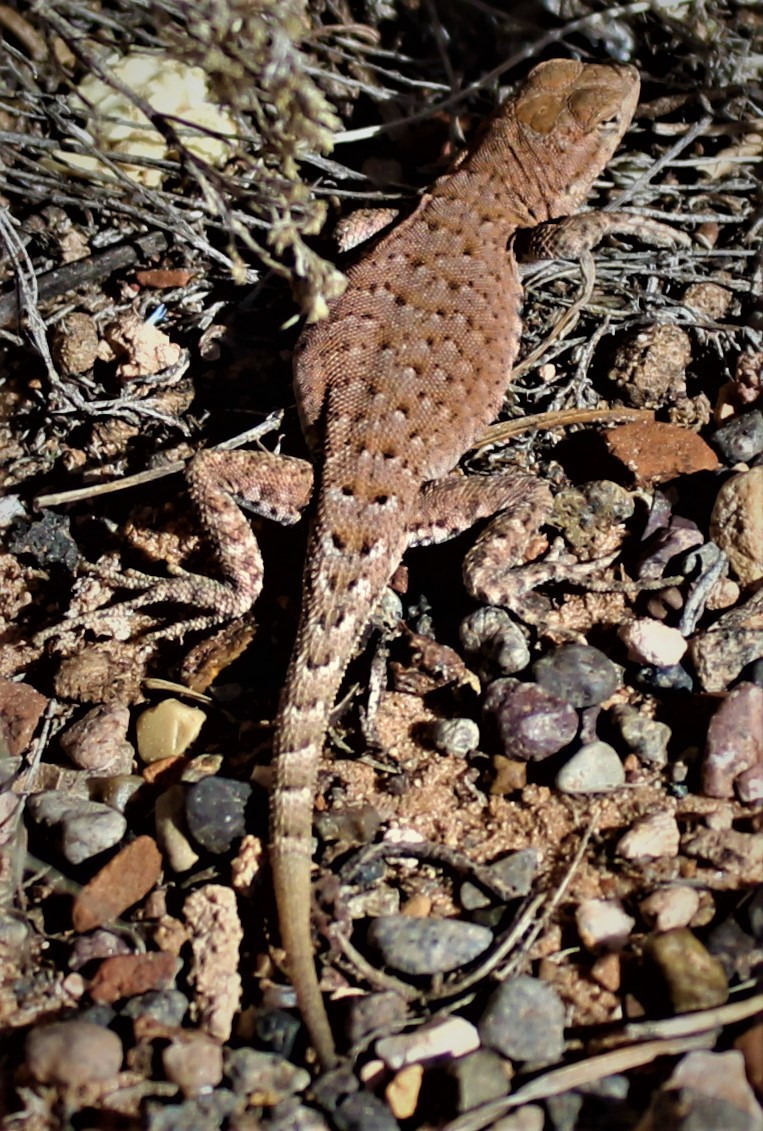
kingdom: Animalia
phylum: Chordata
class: Squamata
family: Phrynosomatidae
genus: Uta
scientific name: Uta stansburiana
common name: Side-blotched lizard
